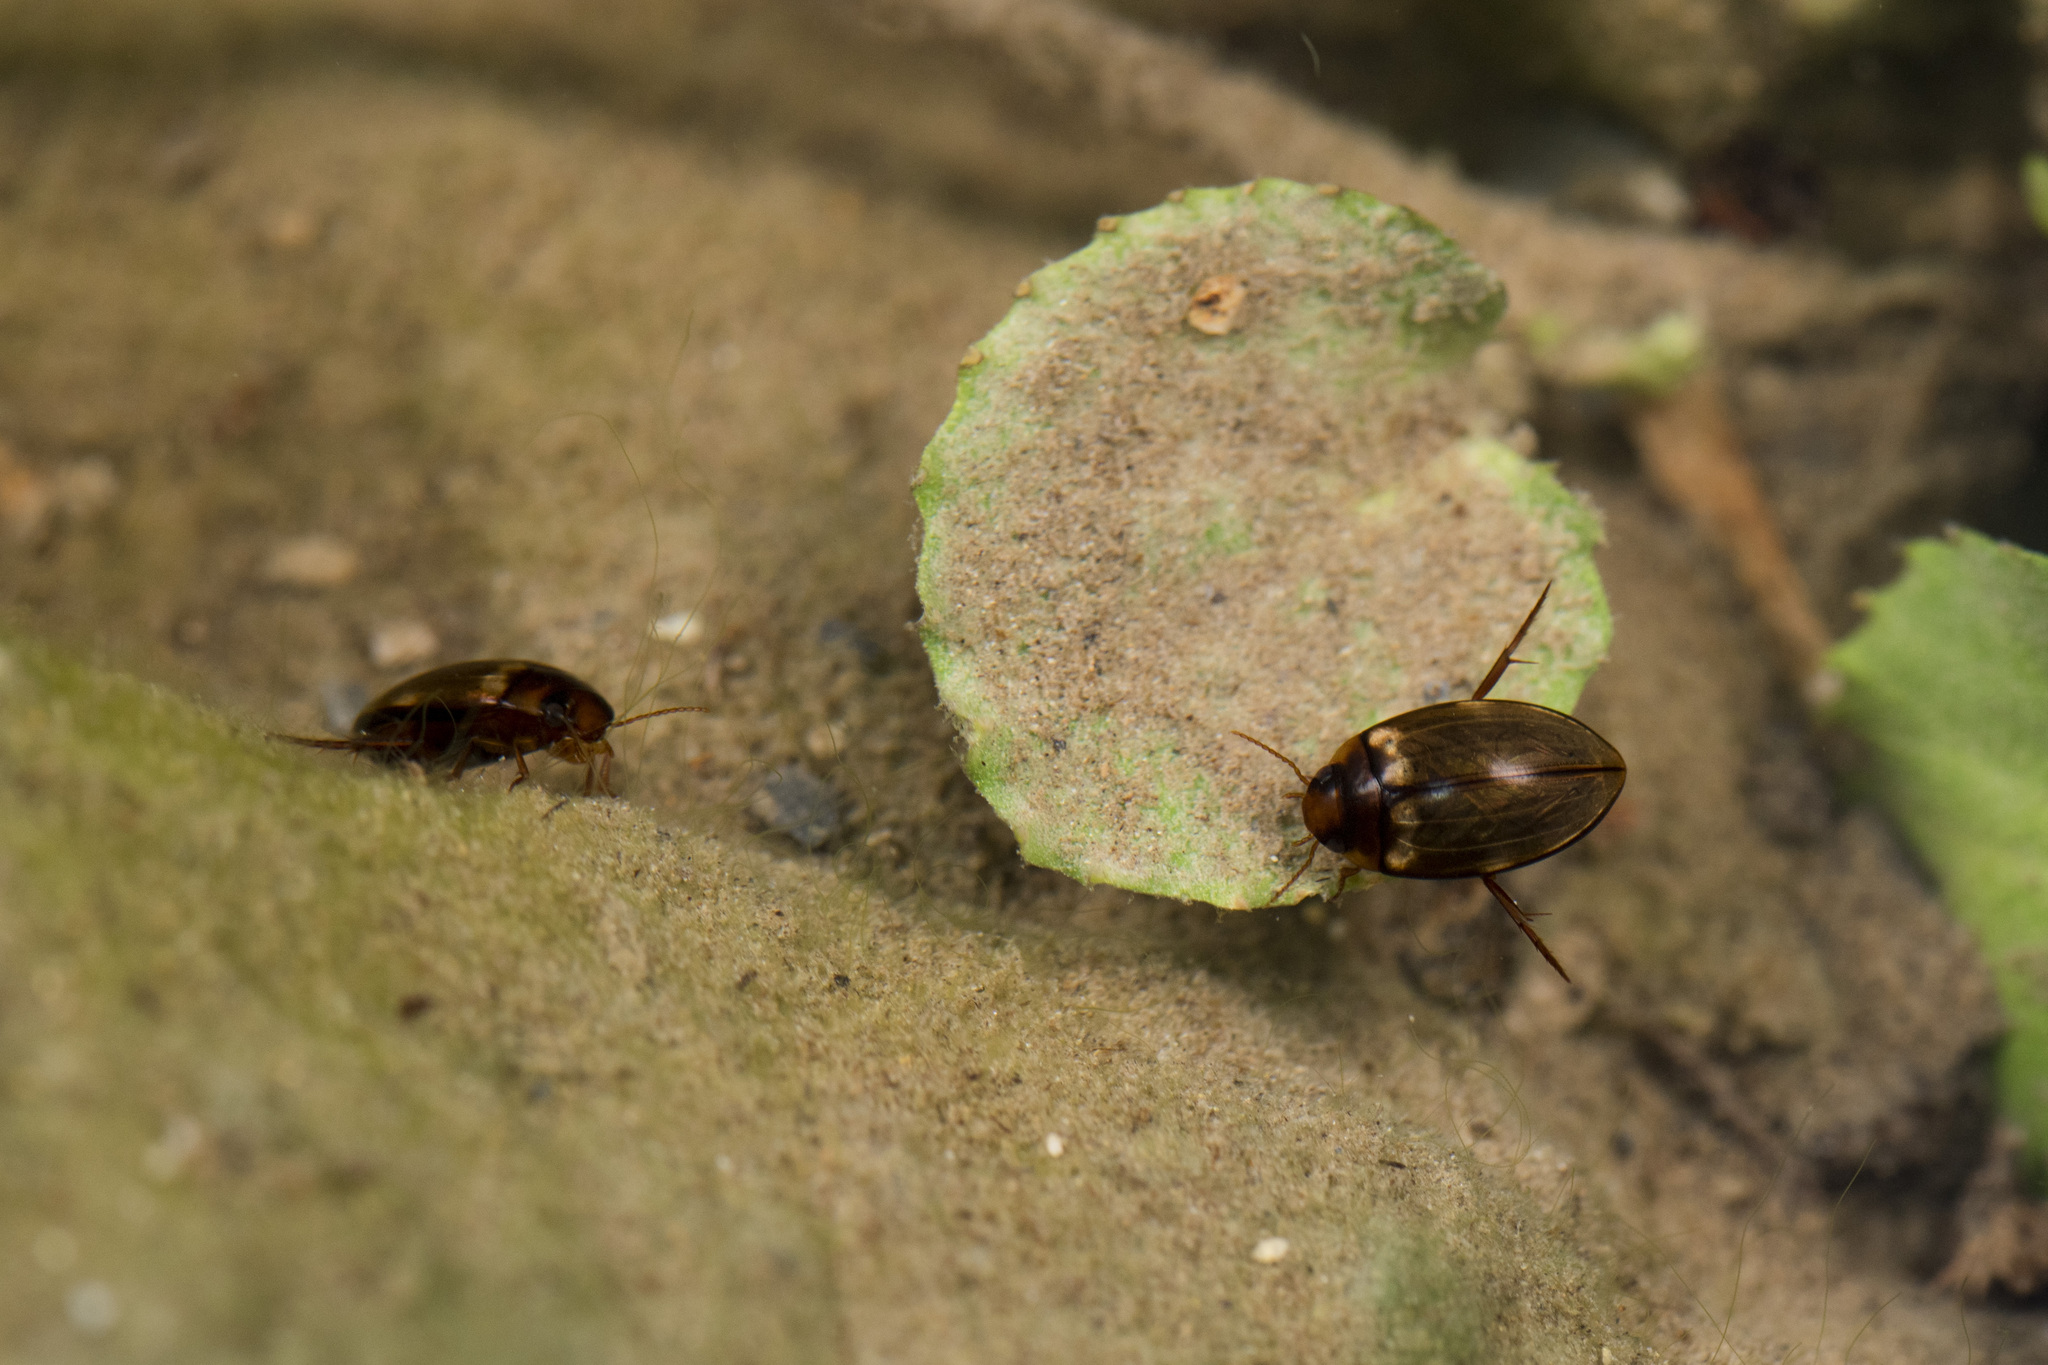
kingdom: Animalia
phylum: Arthropoda
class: Insecta
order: Coleoptera
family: Dytiscidae
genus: Lacconectus
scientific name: Lacconectus formosanus
